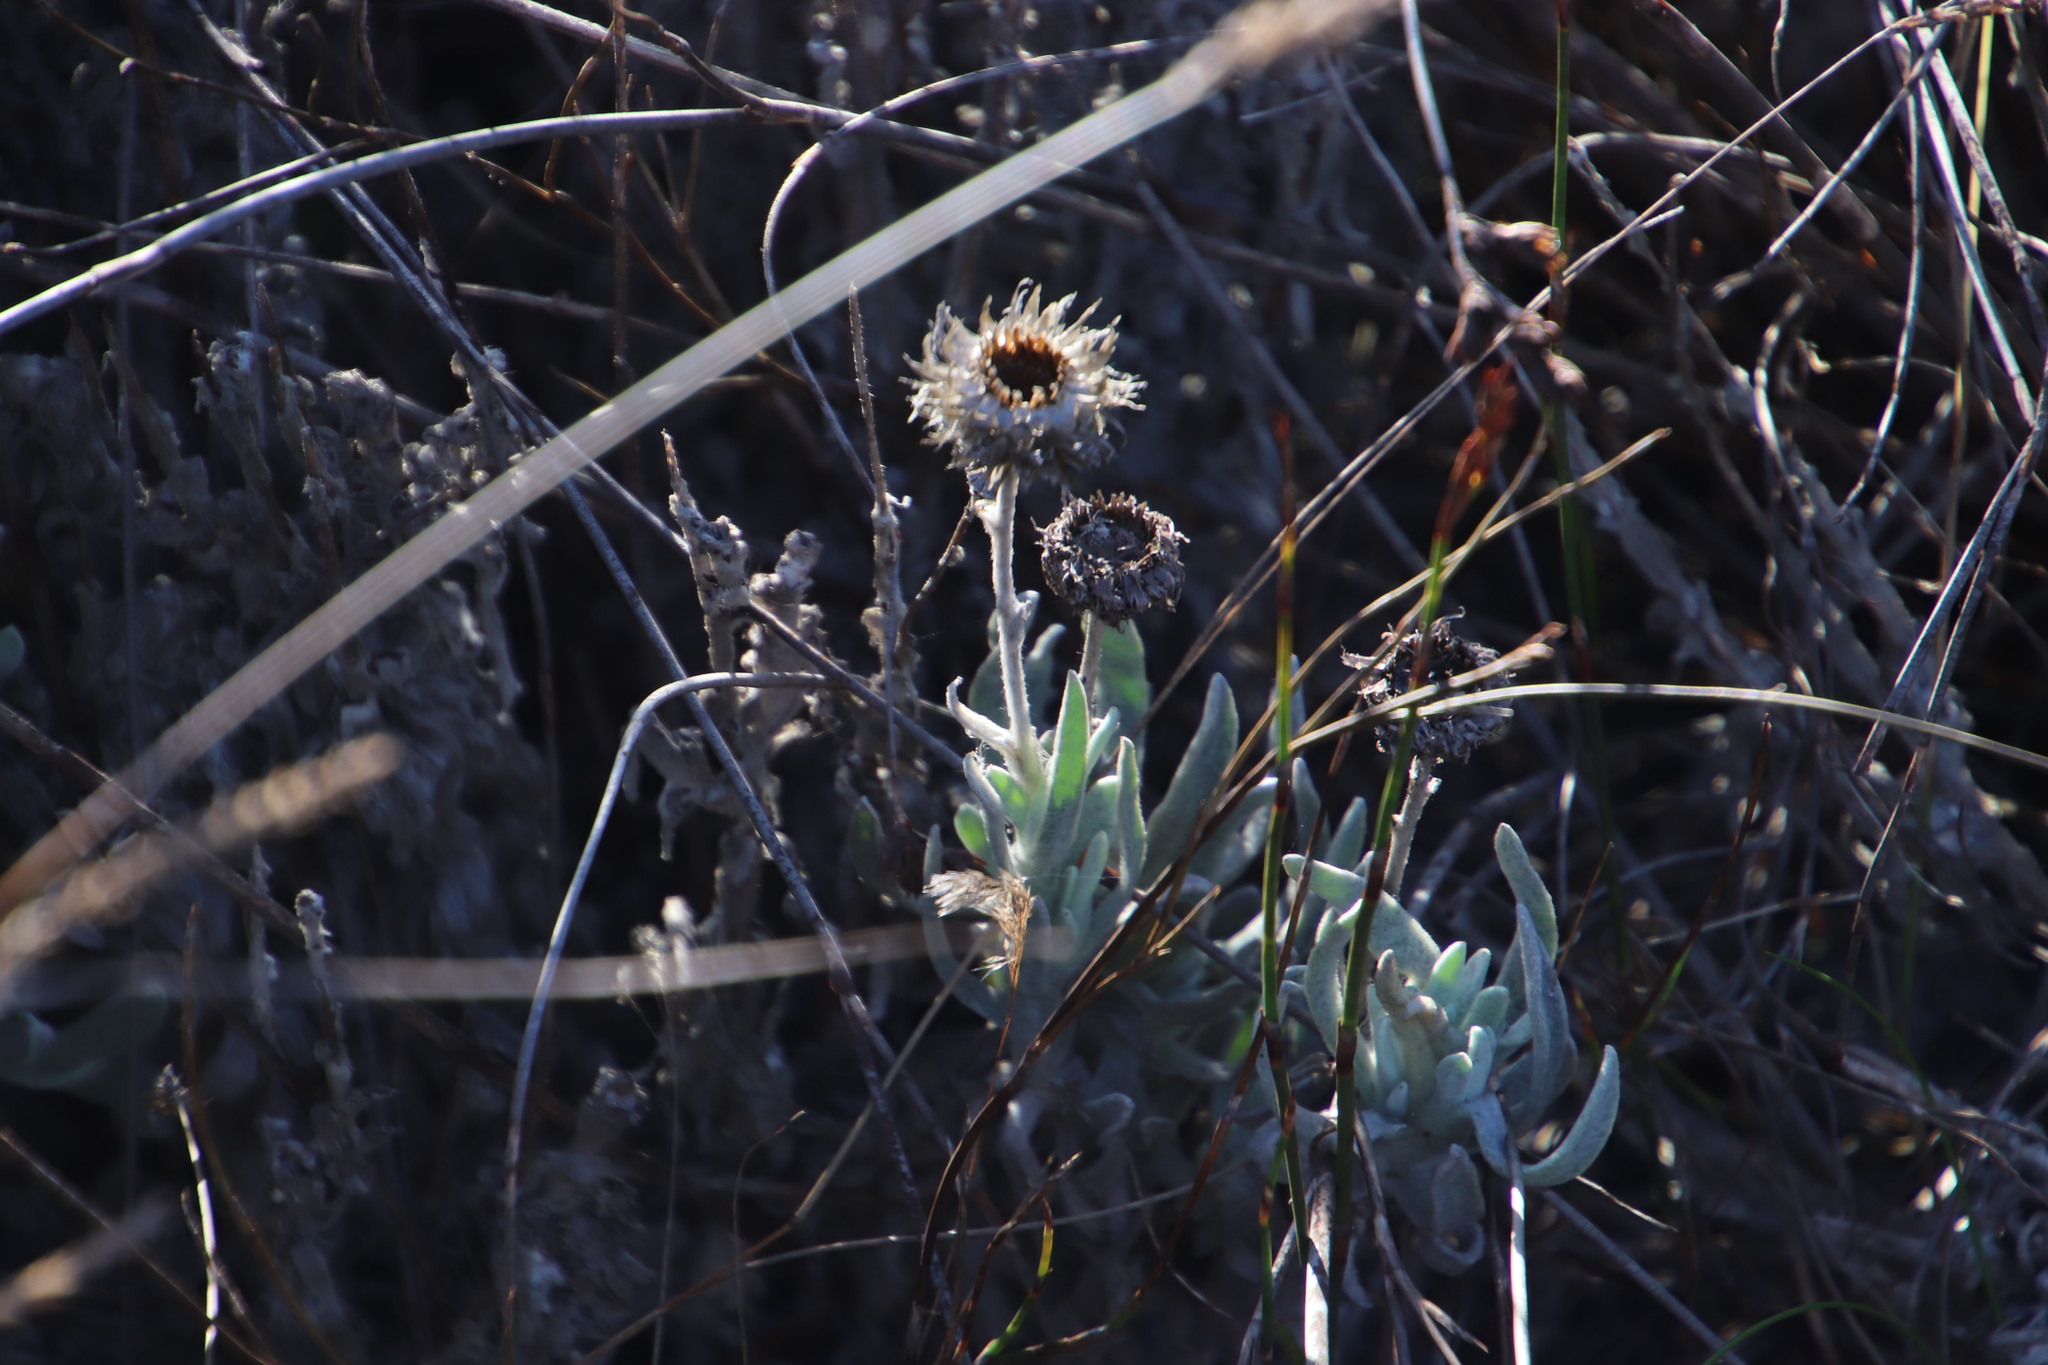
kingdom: Plantae
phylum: Tracheophyta
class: Magnoliopsida
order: Asterales
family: Asteraceae
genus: Syncarpha
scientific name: Syncarpha vestita
